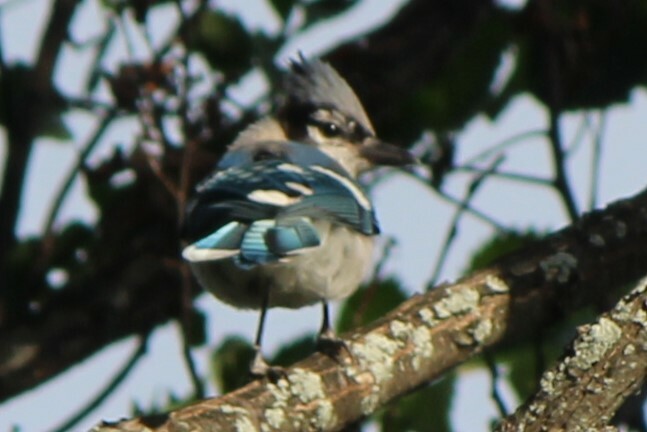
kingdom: Animalia
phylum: Chordata
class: Aves
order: Passeriformes
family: Corvidae
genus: Cyanocitta
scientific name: Cyanocitta cristata
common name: Blue jay
